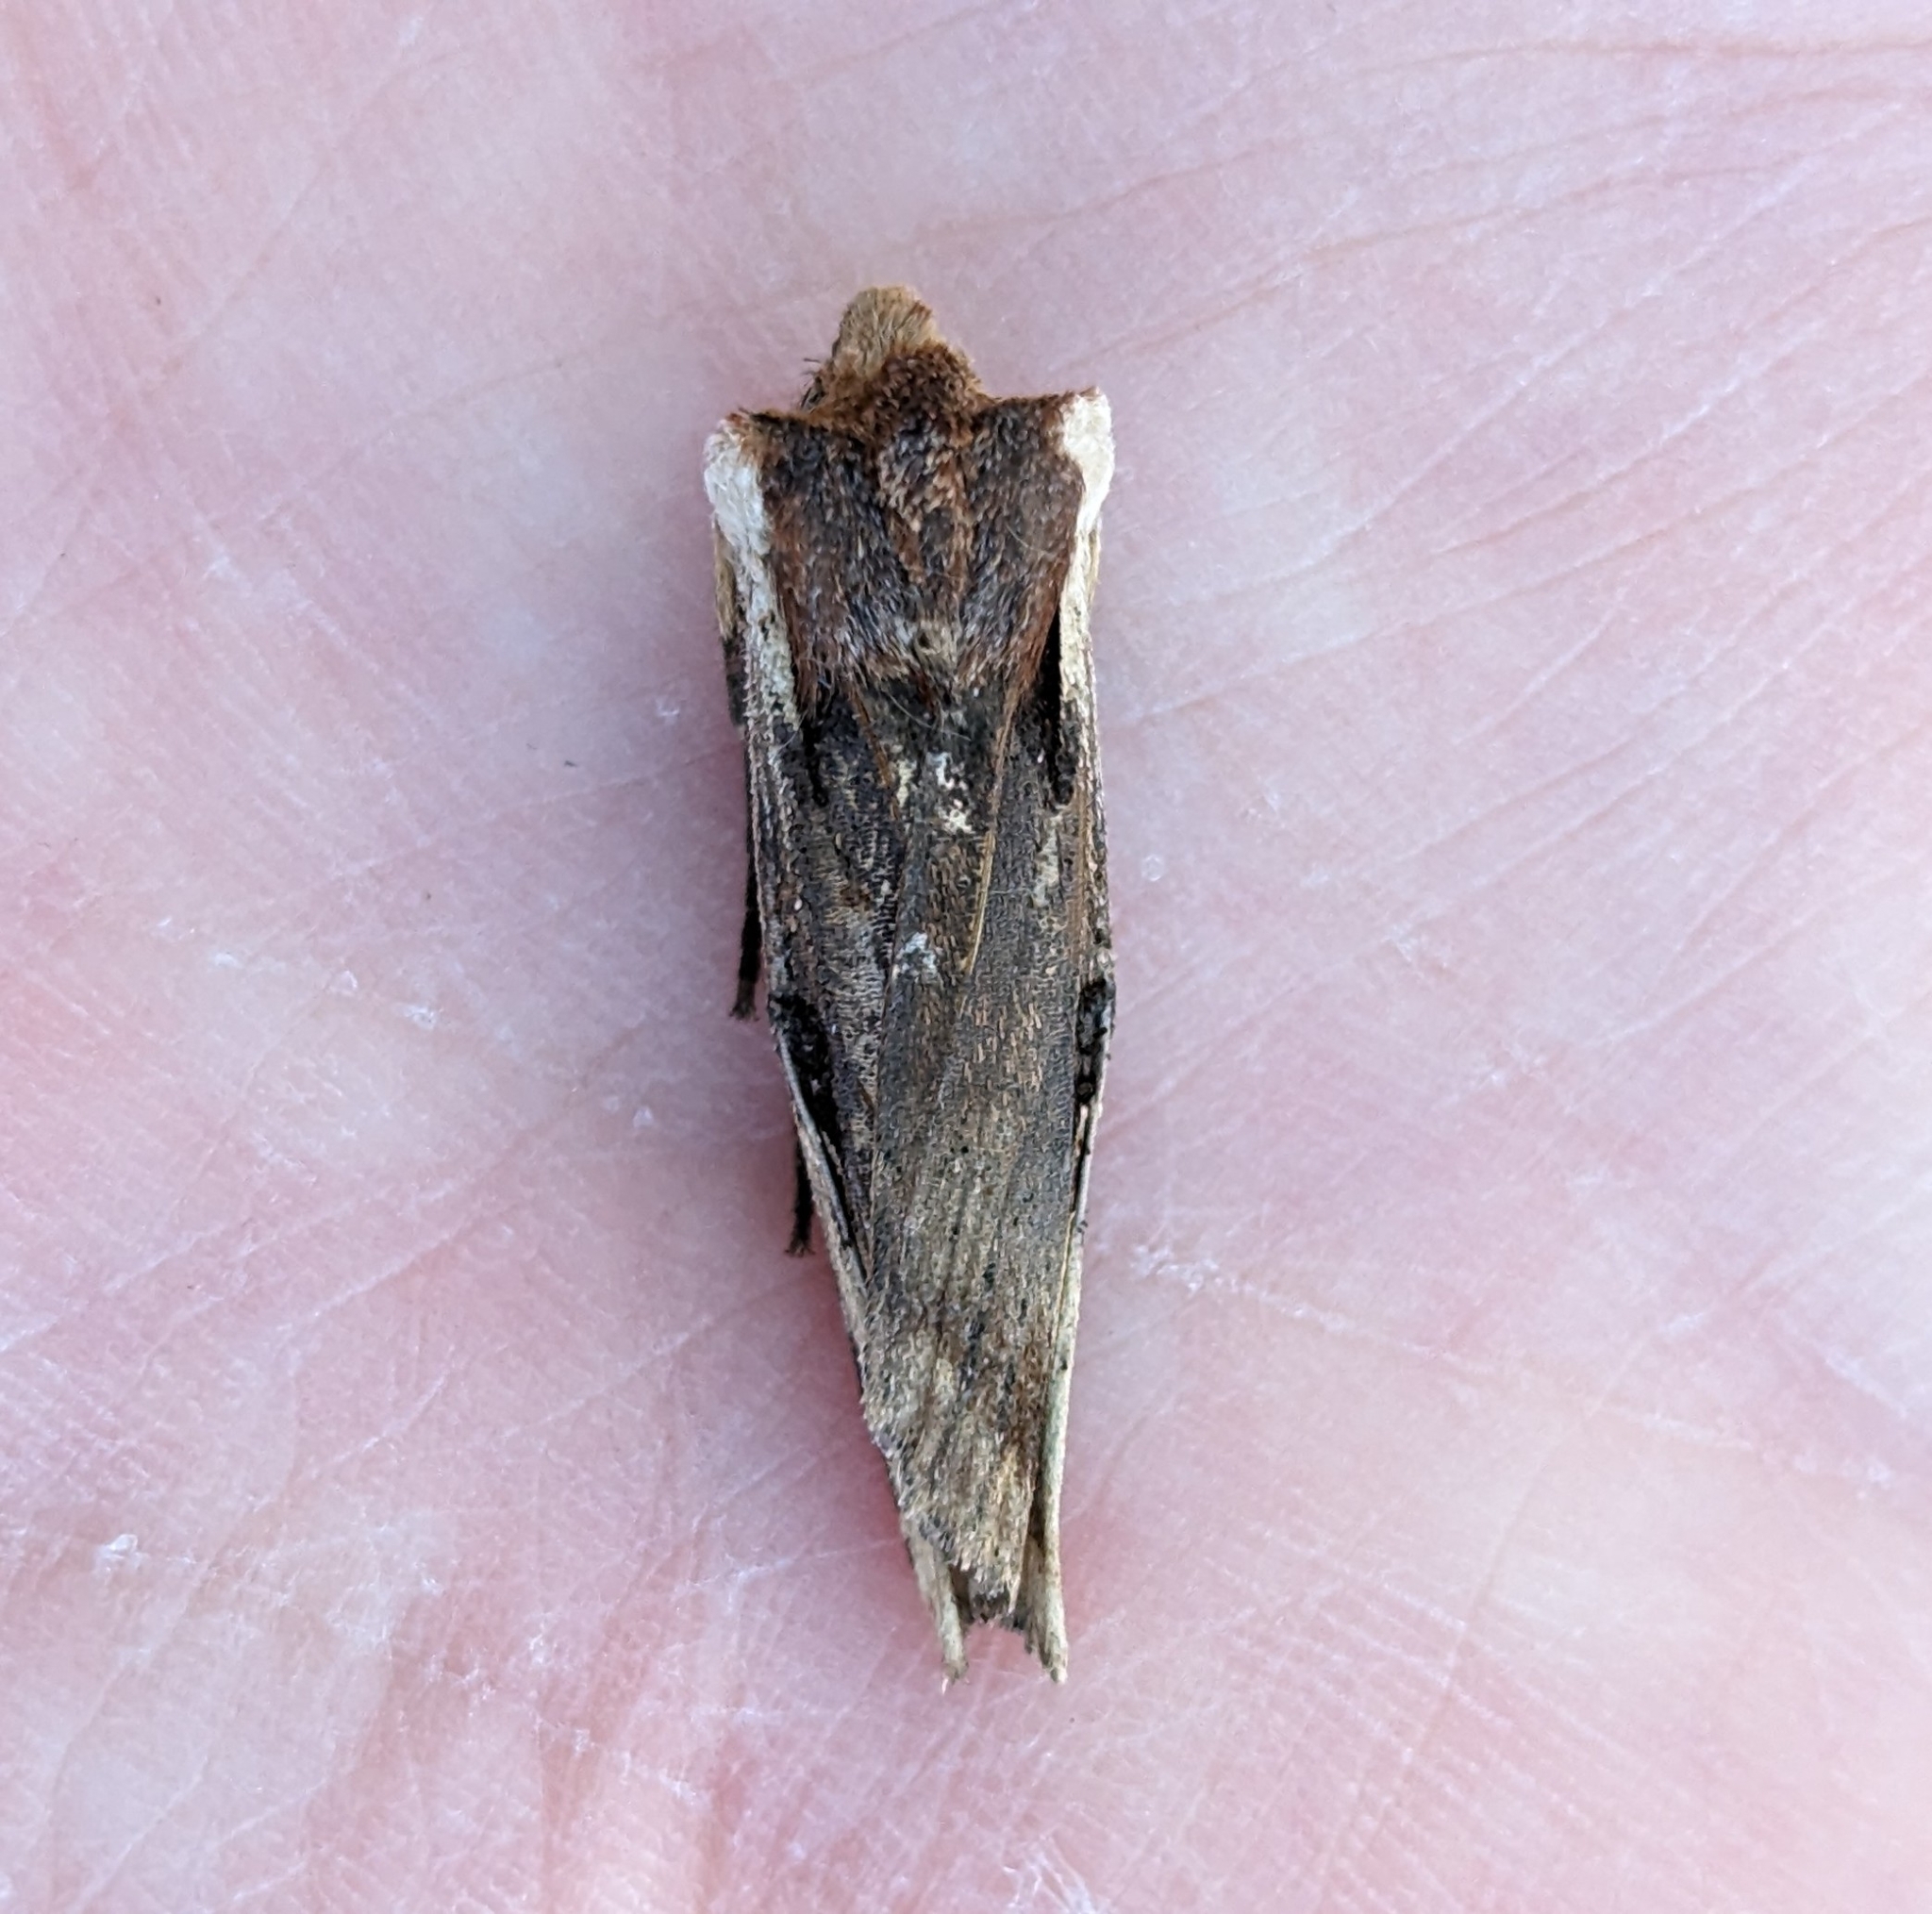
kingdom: Animalia
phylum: Arthropoda
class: Insecta
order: Lepidoptera
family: Noctuidae
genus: Xylena
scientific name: Xylena curvimacula
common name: Dot-and-dash swordgrass moth
